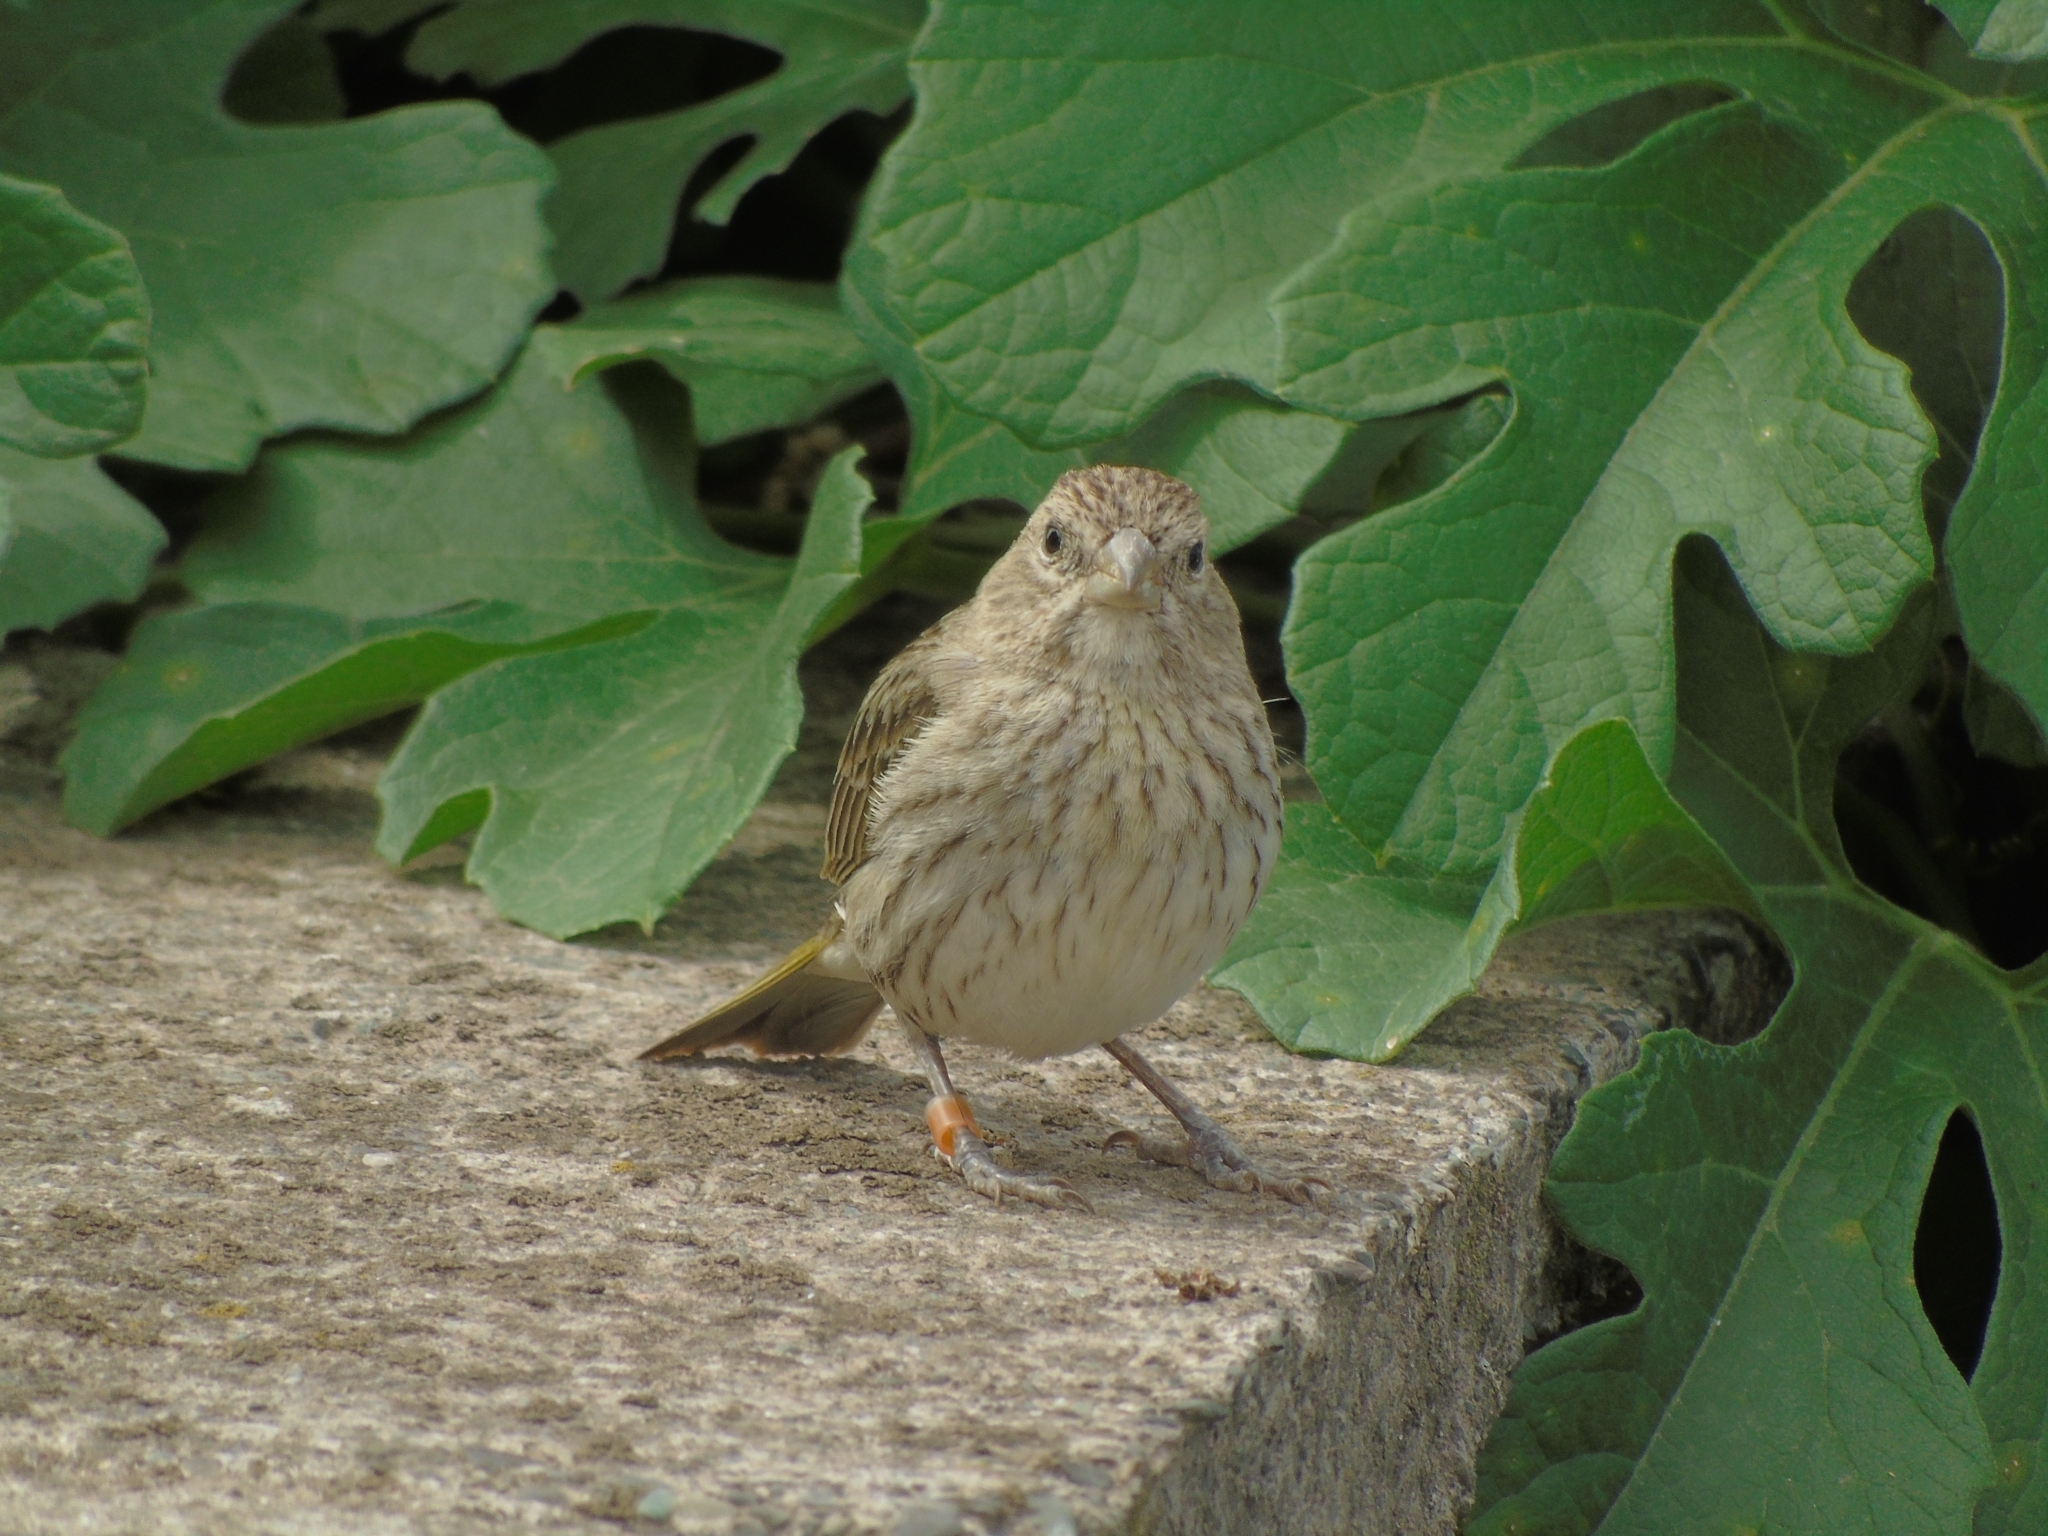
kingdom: Animalia
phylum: Chordata
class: Aves
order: Passeriformes
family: Thraupidae
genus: Sicalis
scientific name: Sicalis flaveola
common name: Saffron finch
